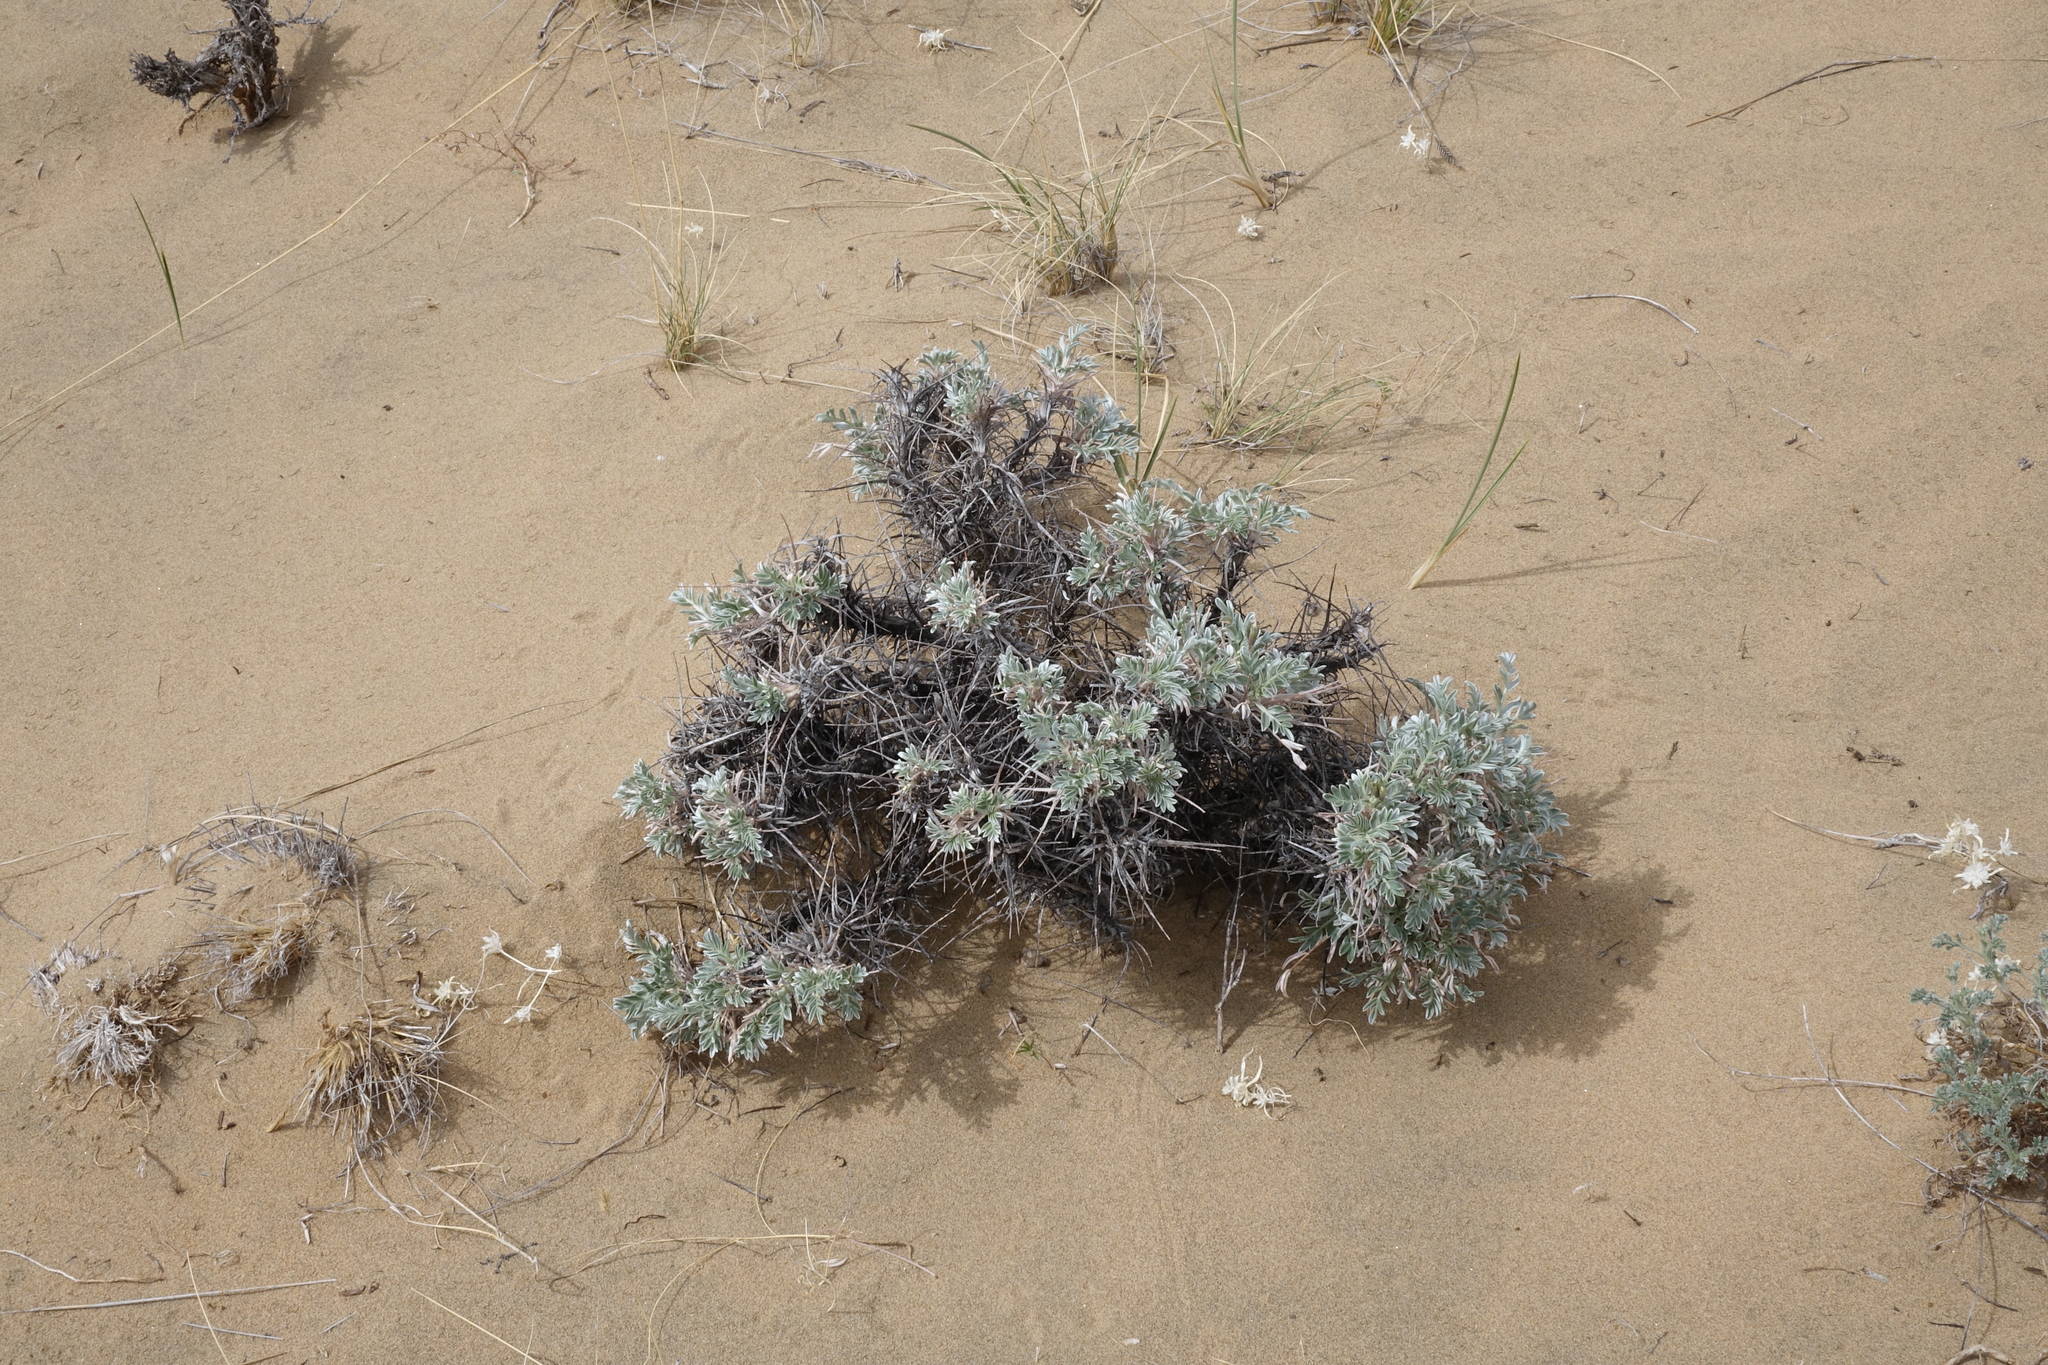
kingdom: Plantae
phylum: Tracheophyta
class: Magnoliopsida
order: Fabales
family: Fabaceae
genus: Oxytropis
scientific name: Oxytropis tragacanthoides
